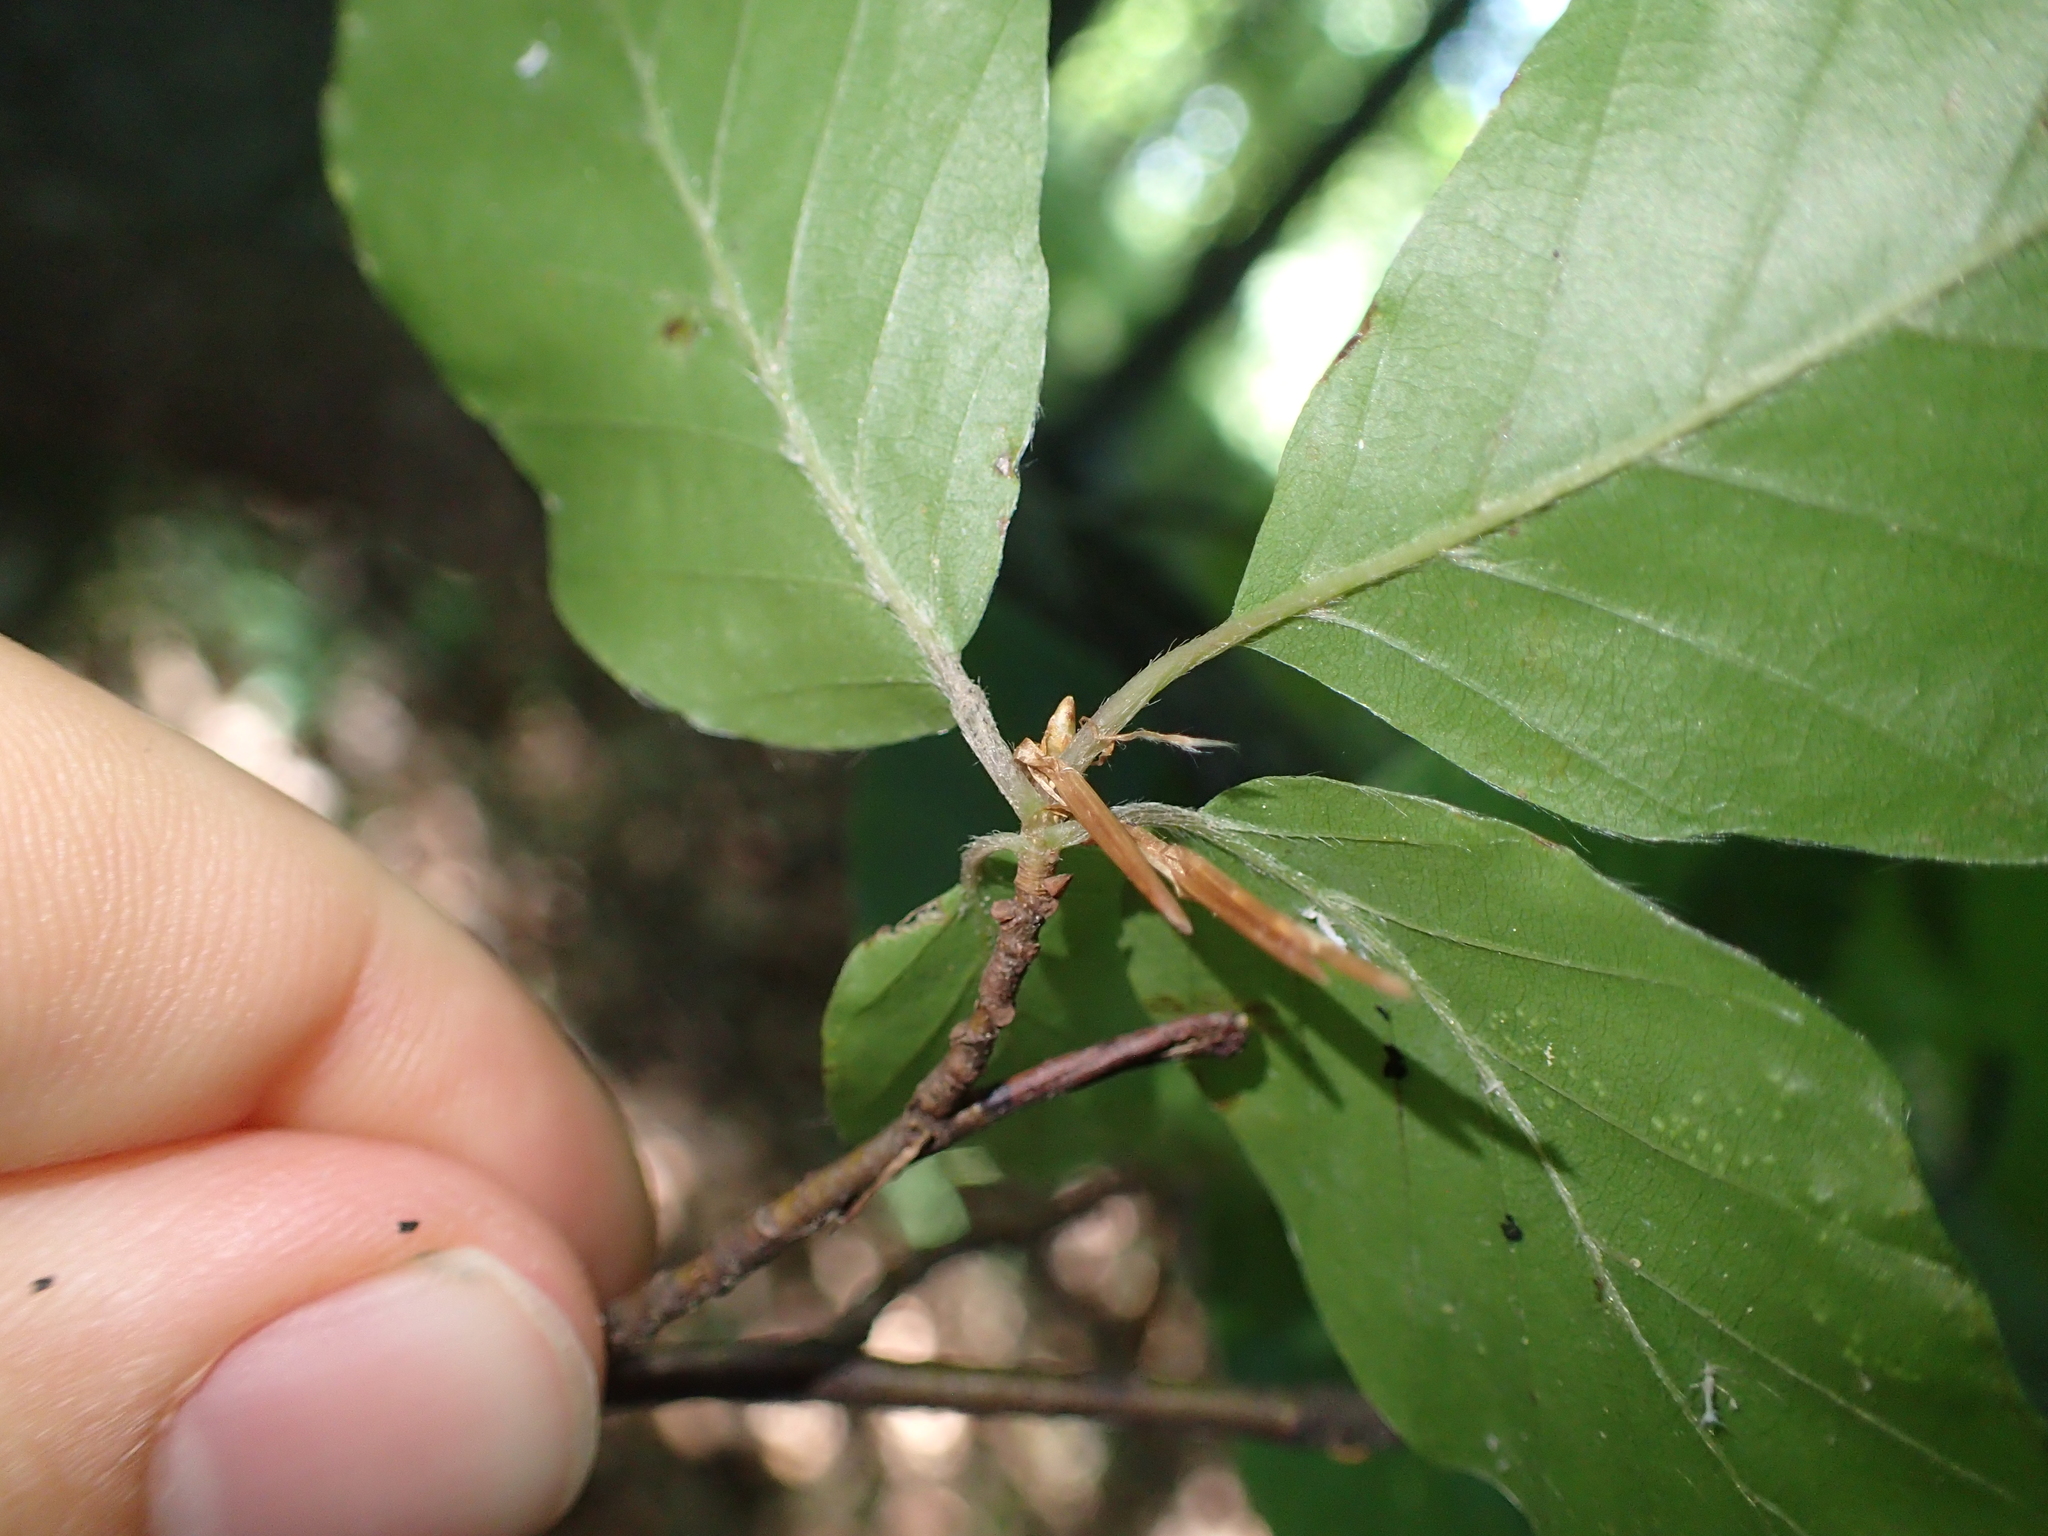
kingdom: Plantae
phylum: Tracheophyta
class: Magnoliopsida
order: Fagales
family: Fagaceae
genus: Fagus
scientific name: Fagus sylvatica
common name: Beech
